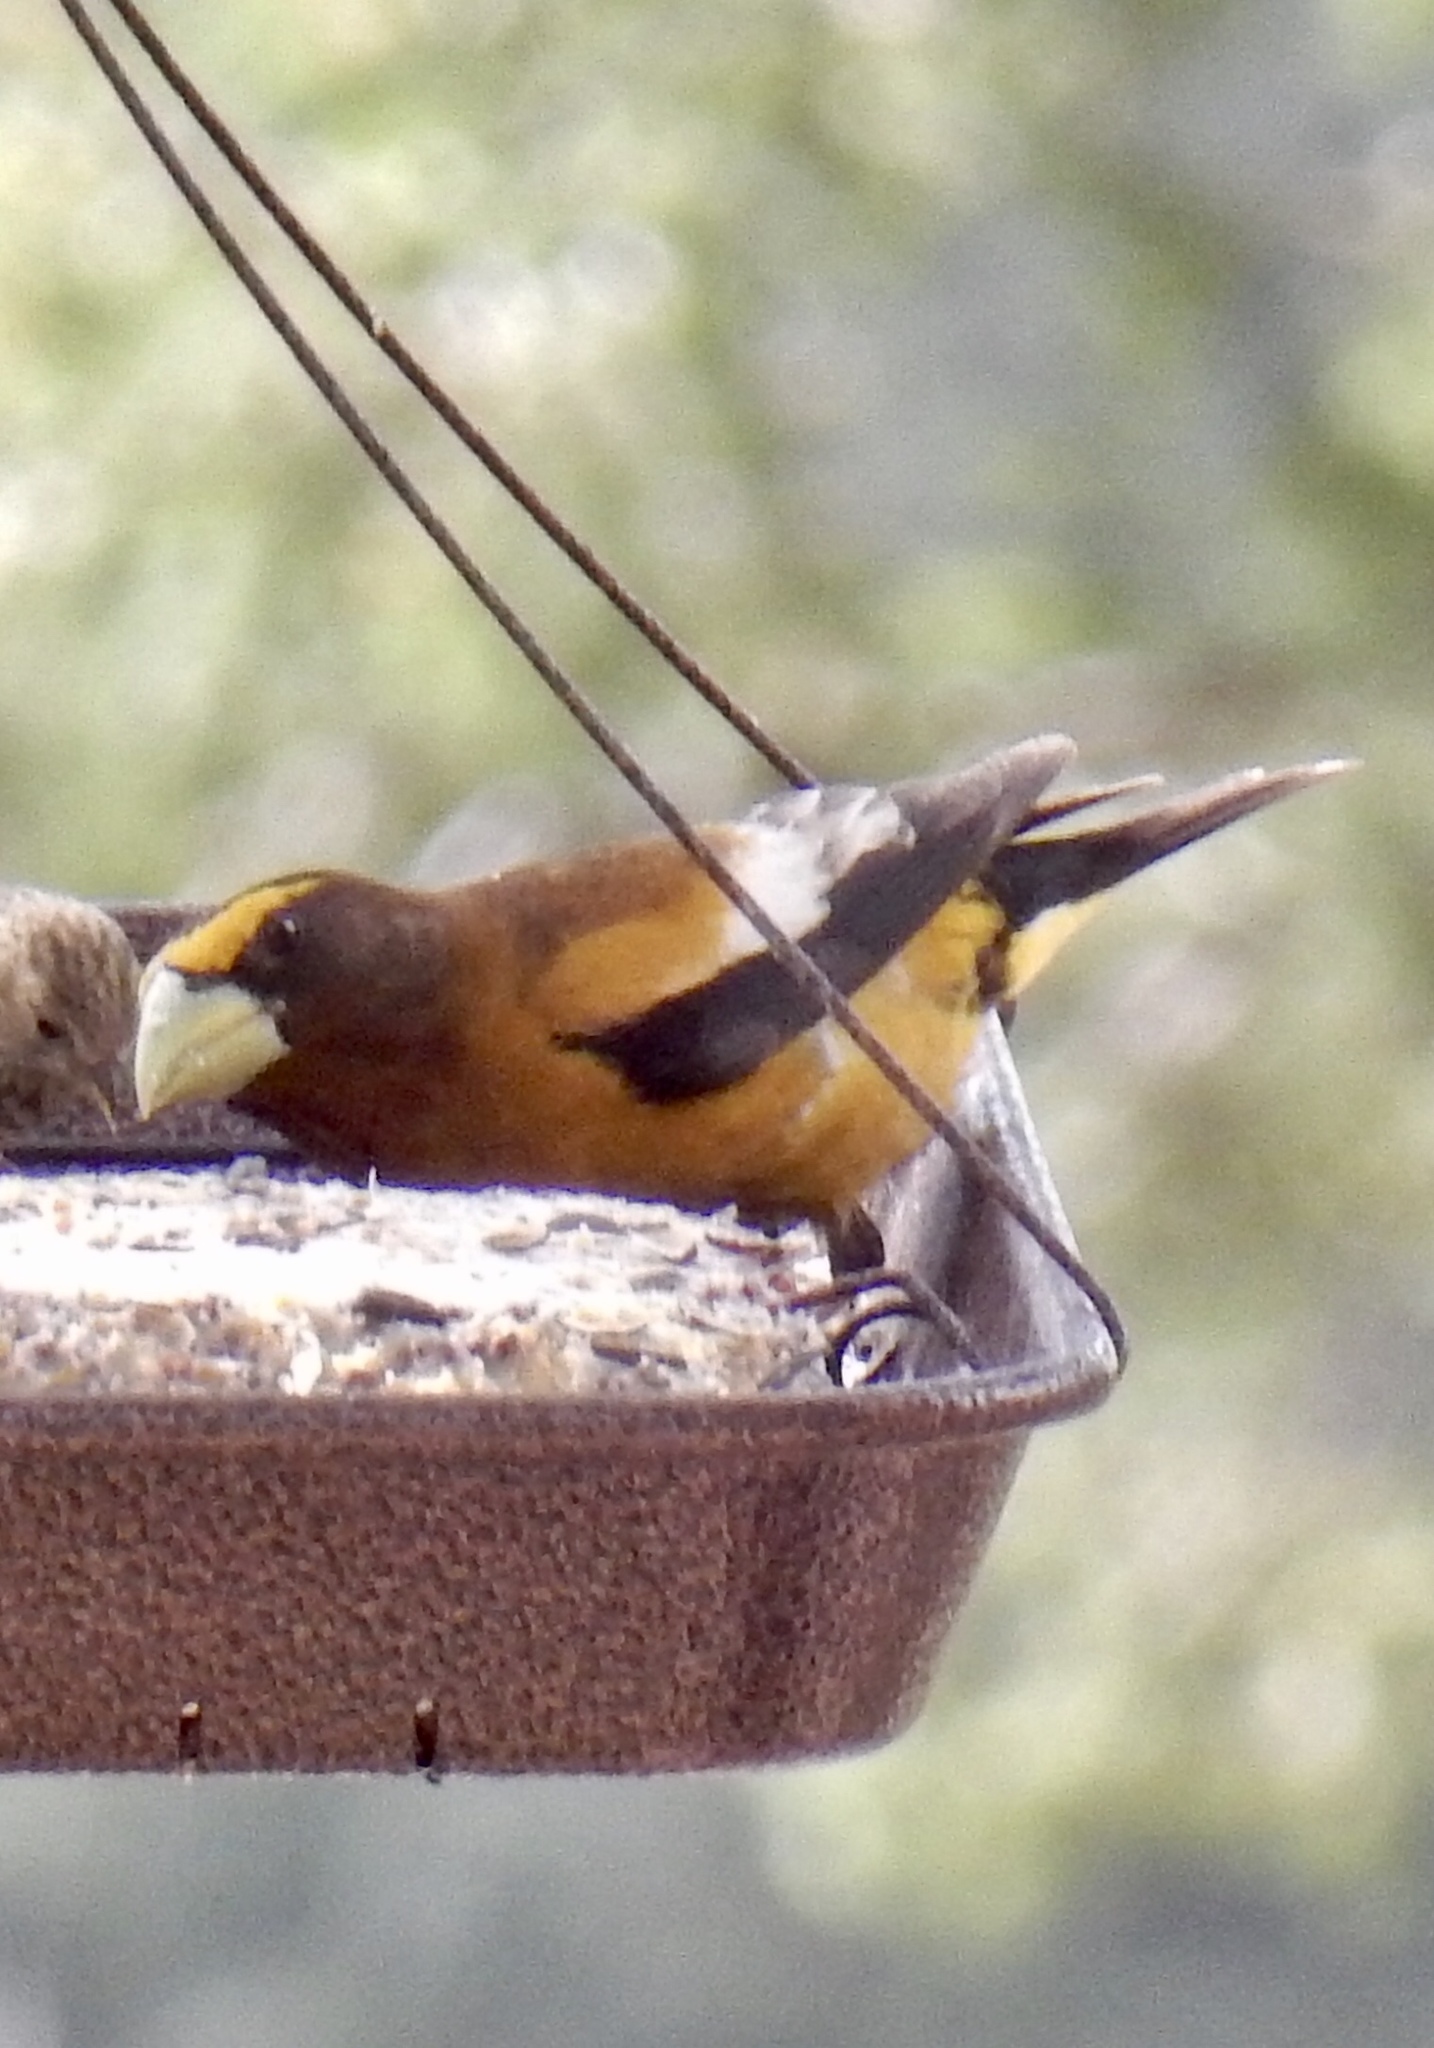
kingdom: Animalia
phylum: Chordata
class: Aves
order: Passeriformes
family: Fringillidae
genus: Hesperiphona
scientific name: Hesperiphona vespertina
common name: Evening grosbeak
